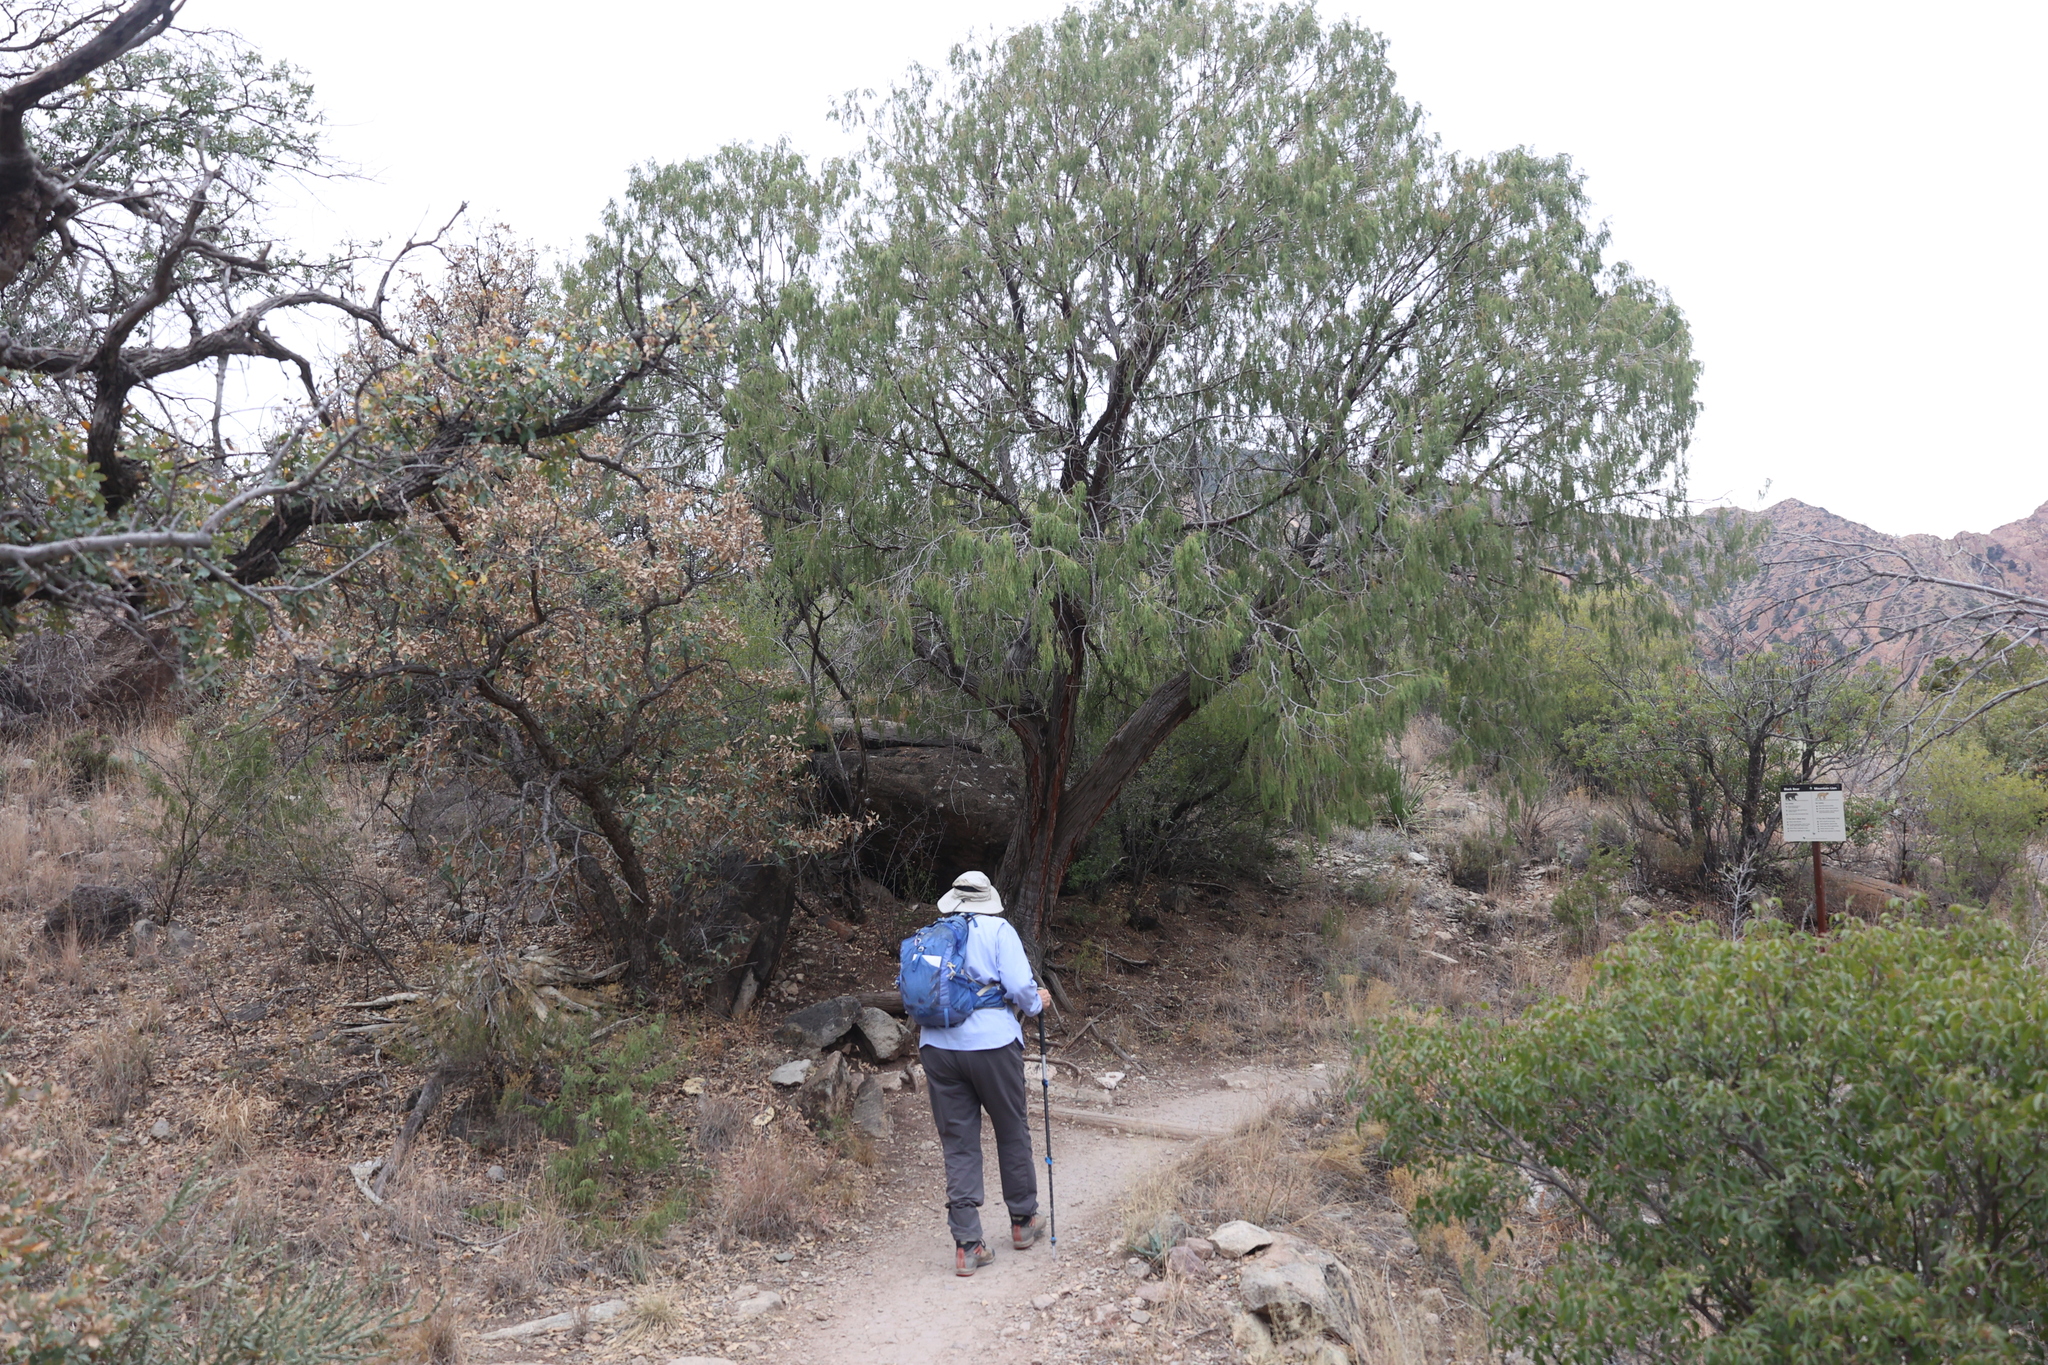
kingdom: Plantae
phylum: Tracheophyta
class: Pinopsida
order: Pinales
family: Cupressaceae
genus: Juniperus
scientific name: Juniperus flaccida
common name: Drooping juniper
